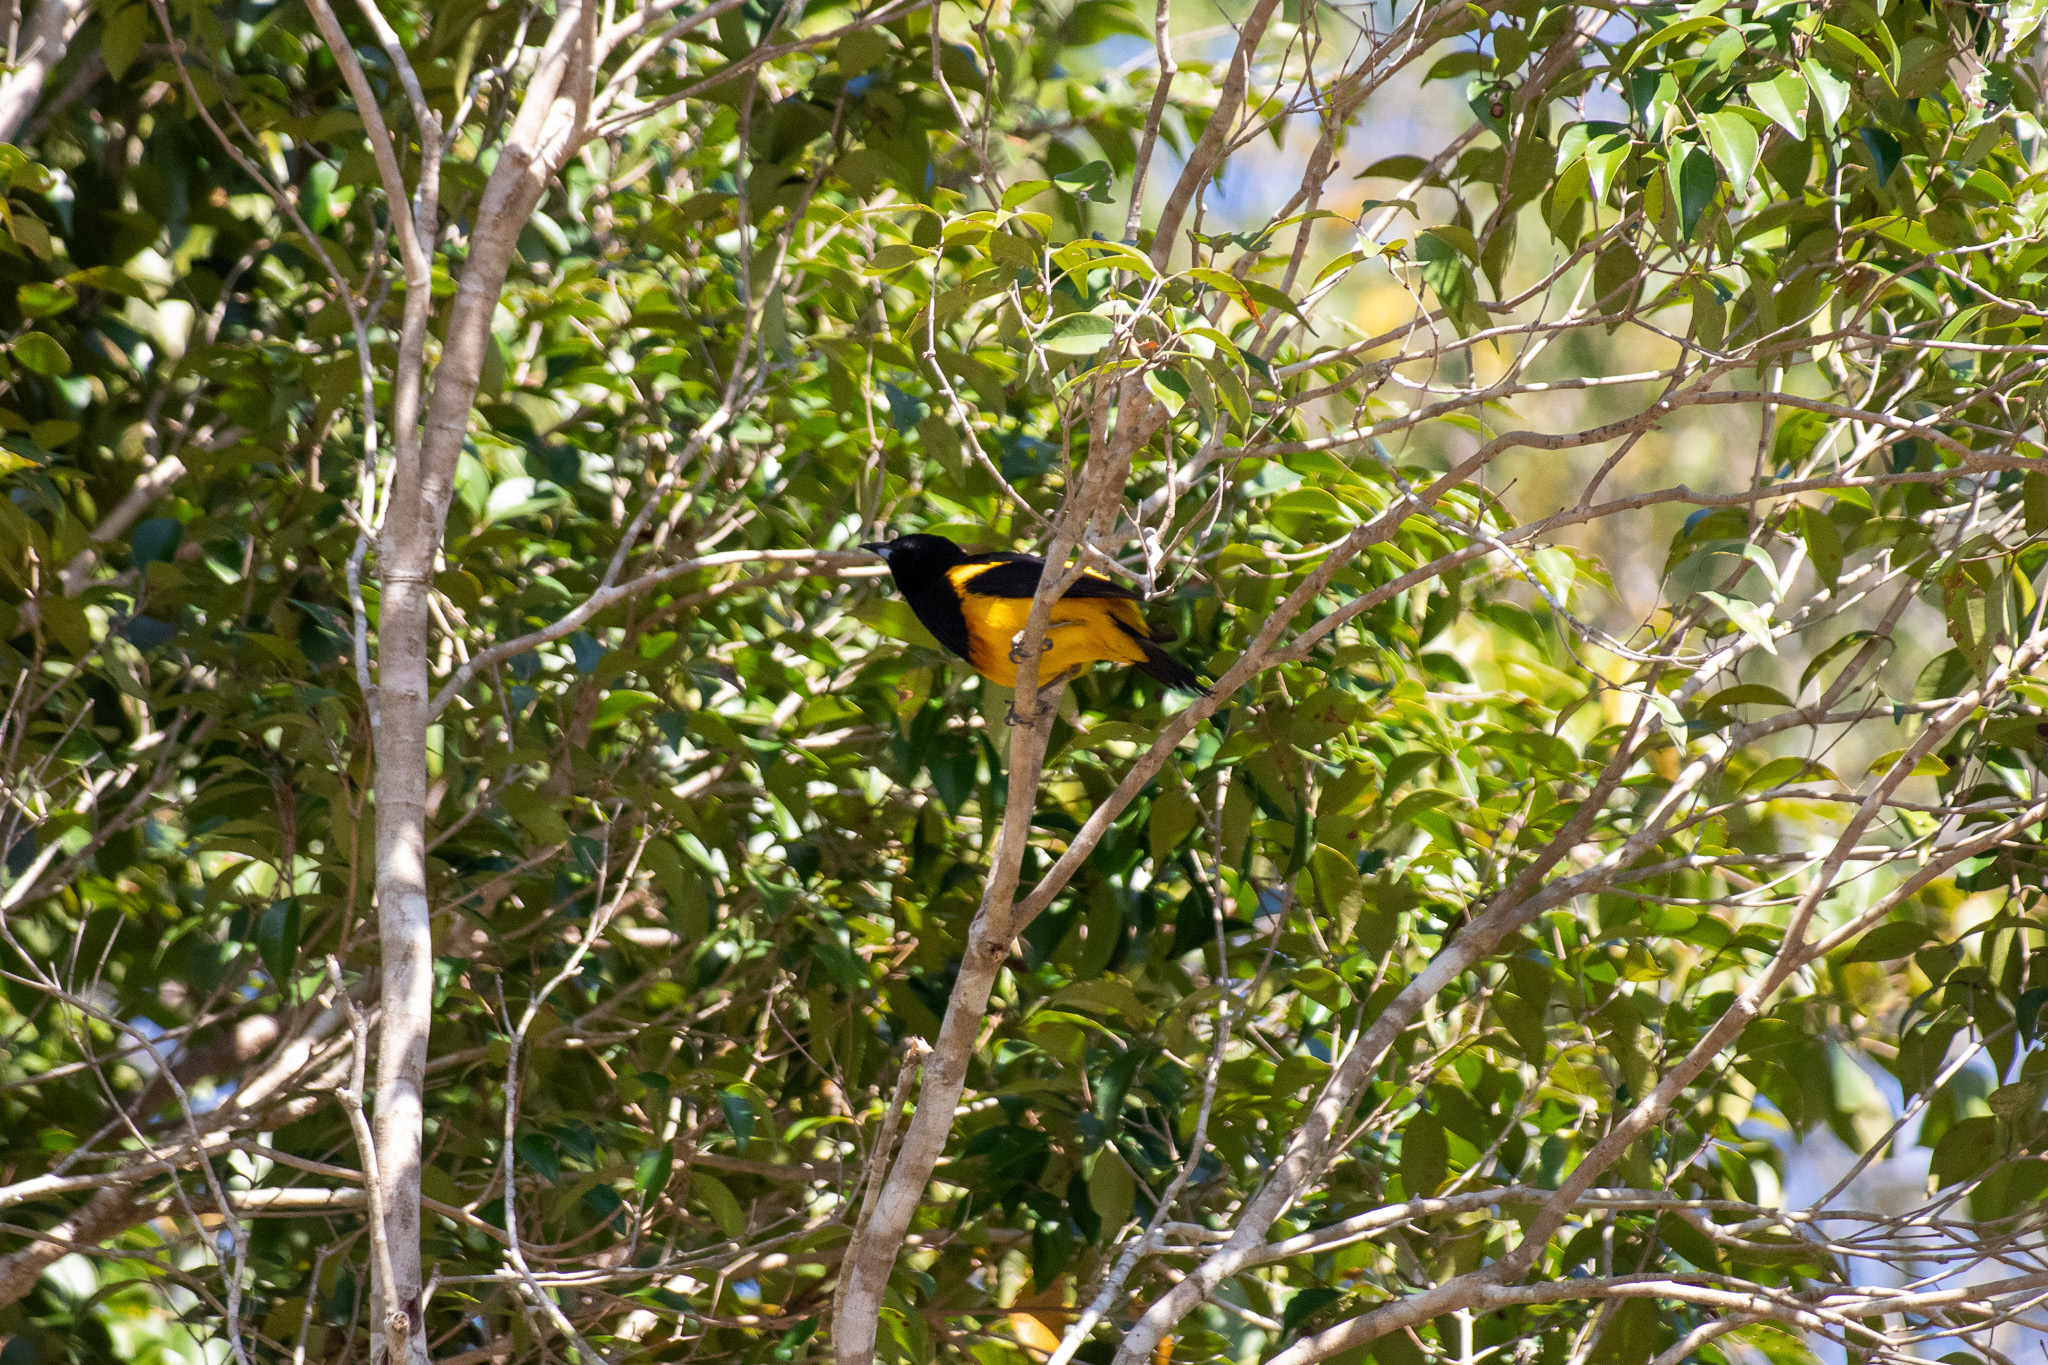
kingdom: Animalia
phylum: Chordata
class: Aves
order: Passeriformes
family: Icteridae
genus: Icterus
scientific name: Icterus prosthemelas
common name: Black-cowled oriole
